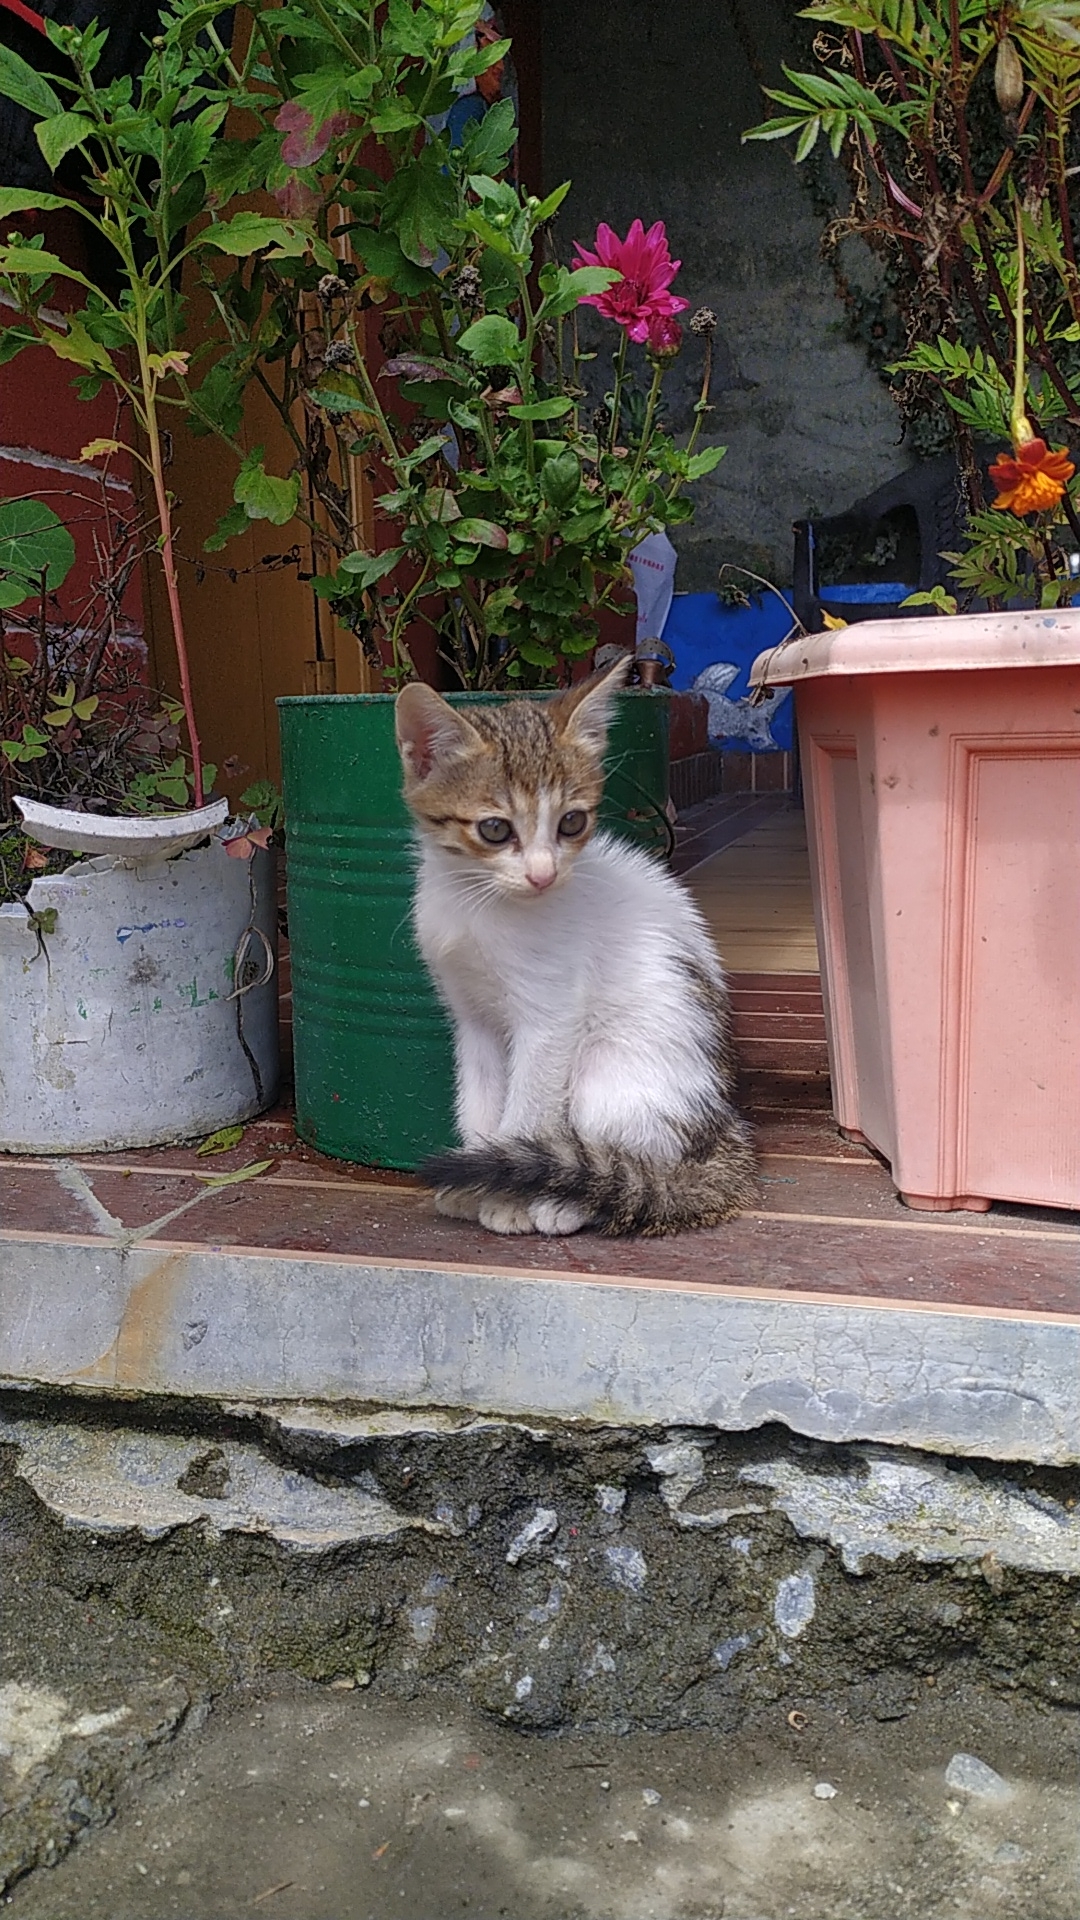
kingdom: Animalia
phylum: Chordata
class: Mammalia
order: Carnivora
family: Felidae
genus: Felis
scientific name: Felis catus
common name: Domestic cat
